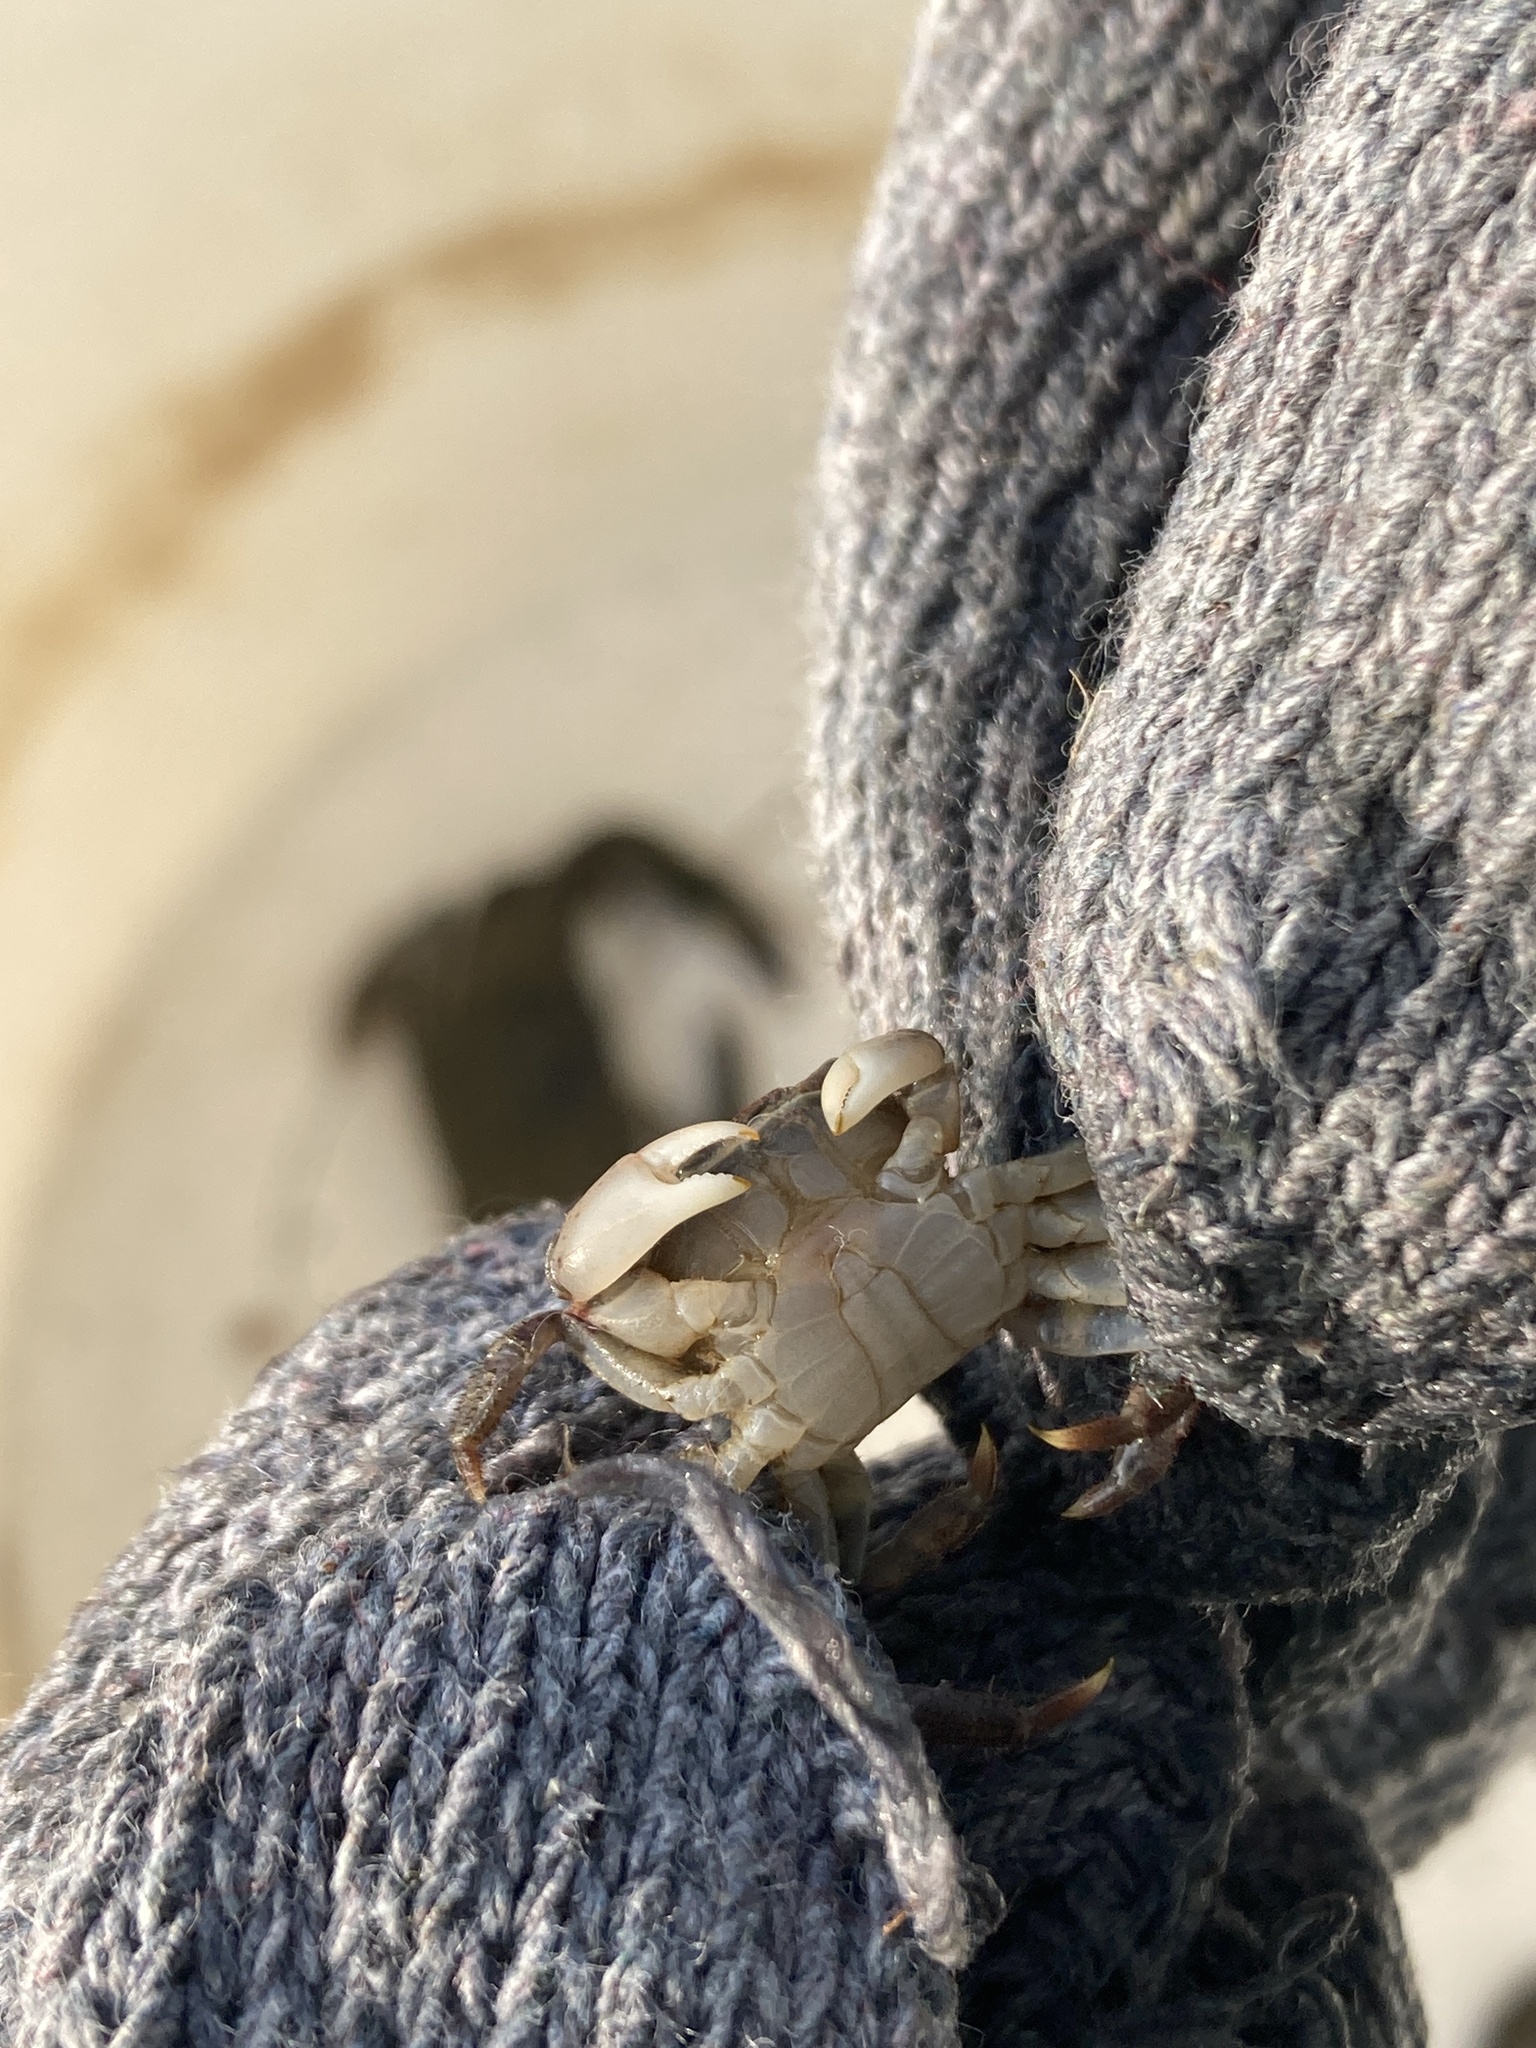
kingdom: Animalia
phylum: Arthropoda
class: Malacostraca
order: Decapoda
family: Sesarmidae
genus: Parasesarma
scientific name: Parasesarma pictum
